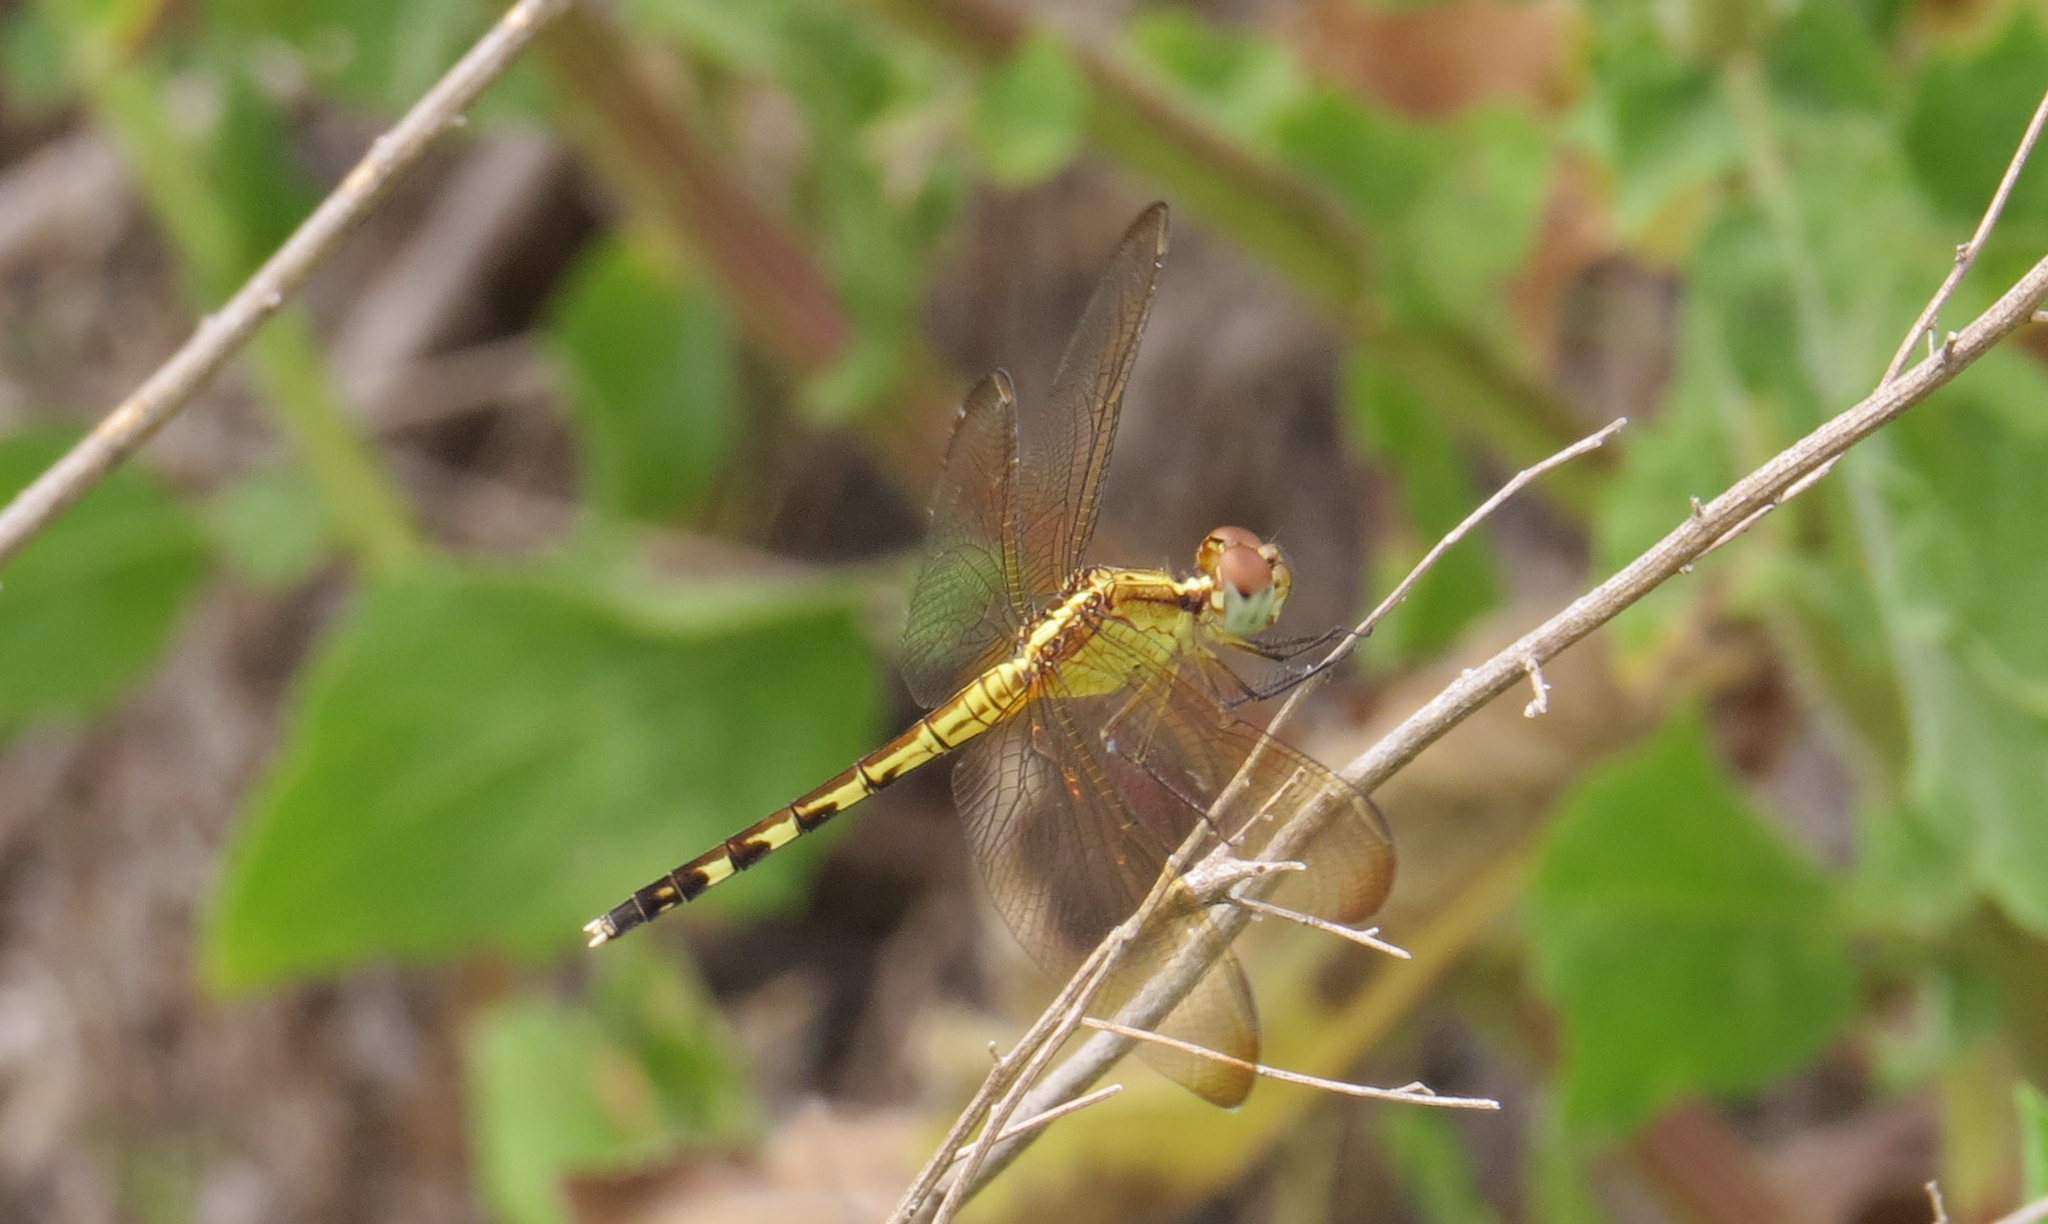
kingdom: Animalia
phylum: Arthropoda
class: Insecta
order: Odonata
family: Libellulidae
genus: Erythrodiplax
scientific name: Erythrodiplax umbrata
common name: Band-winged dragonlet
